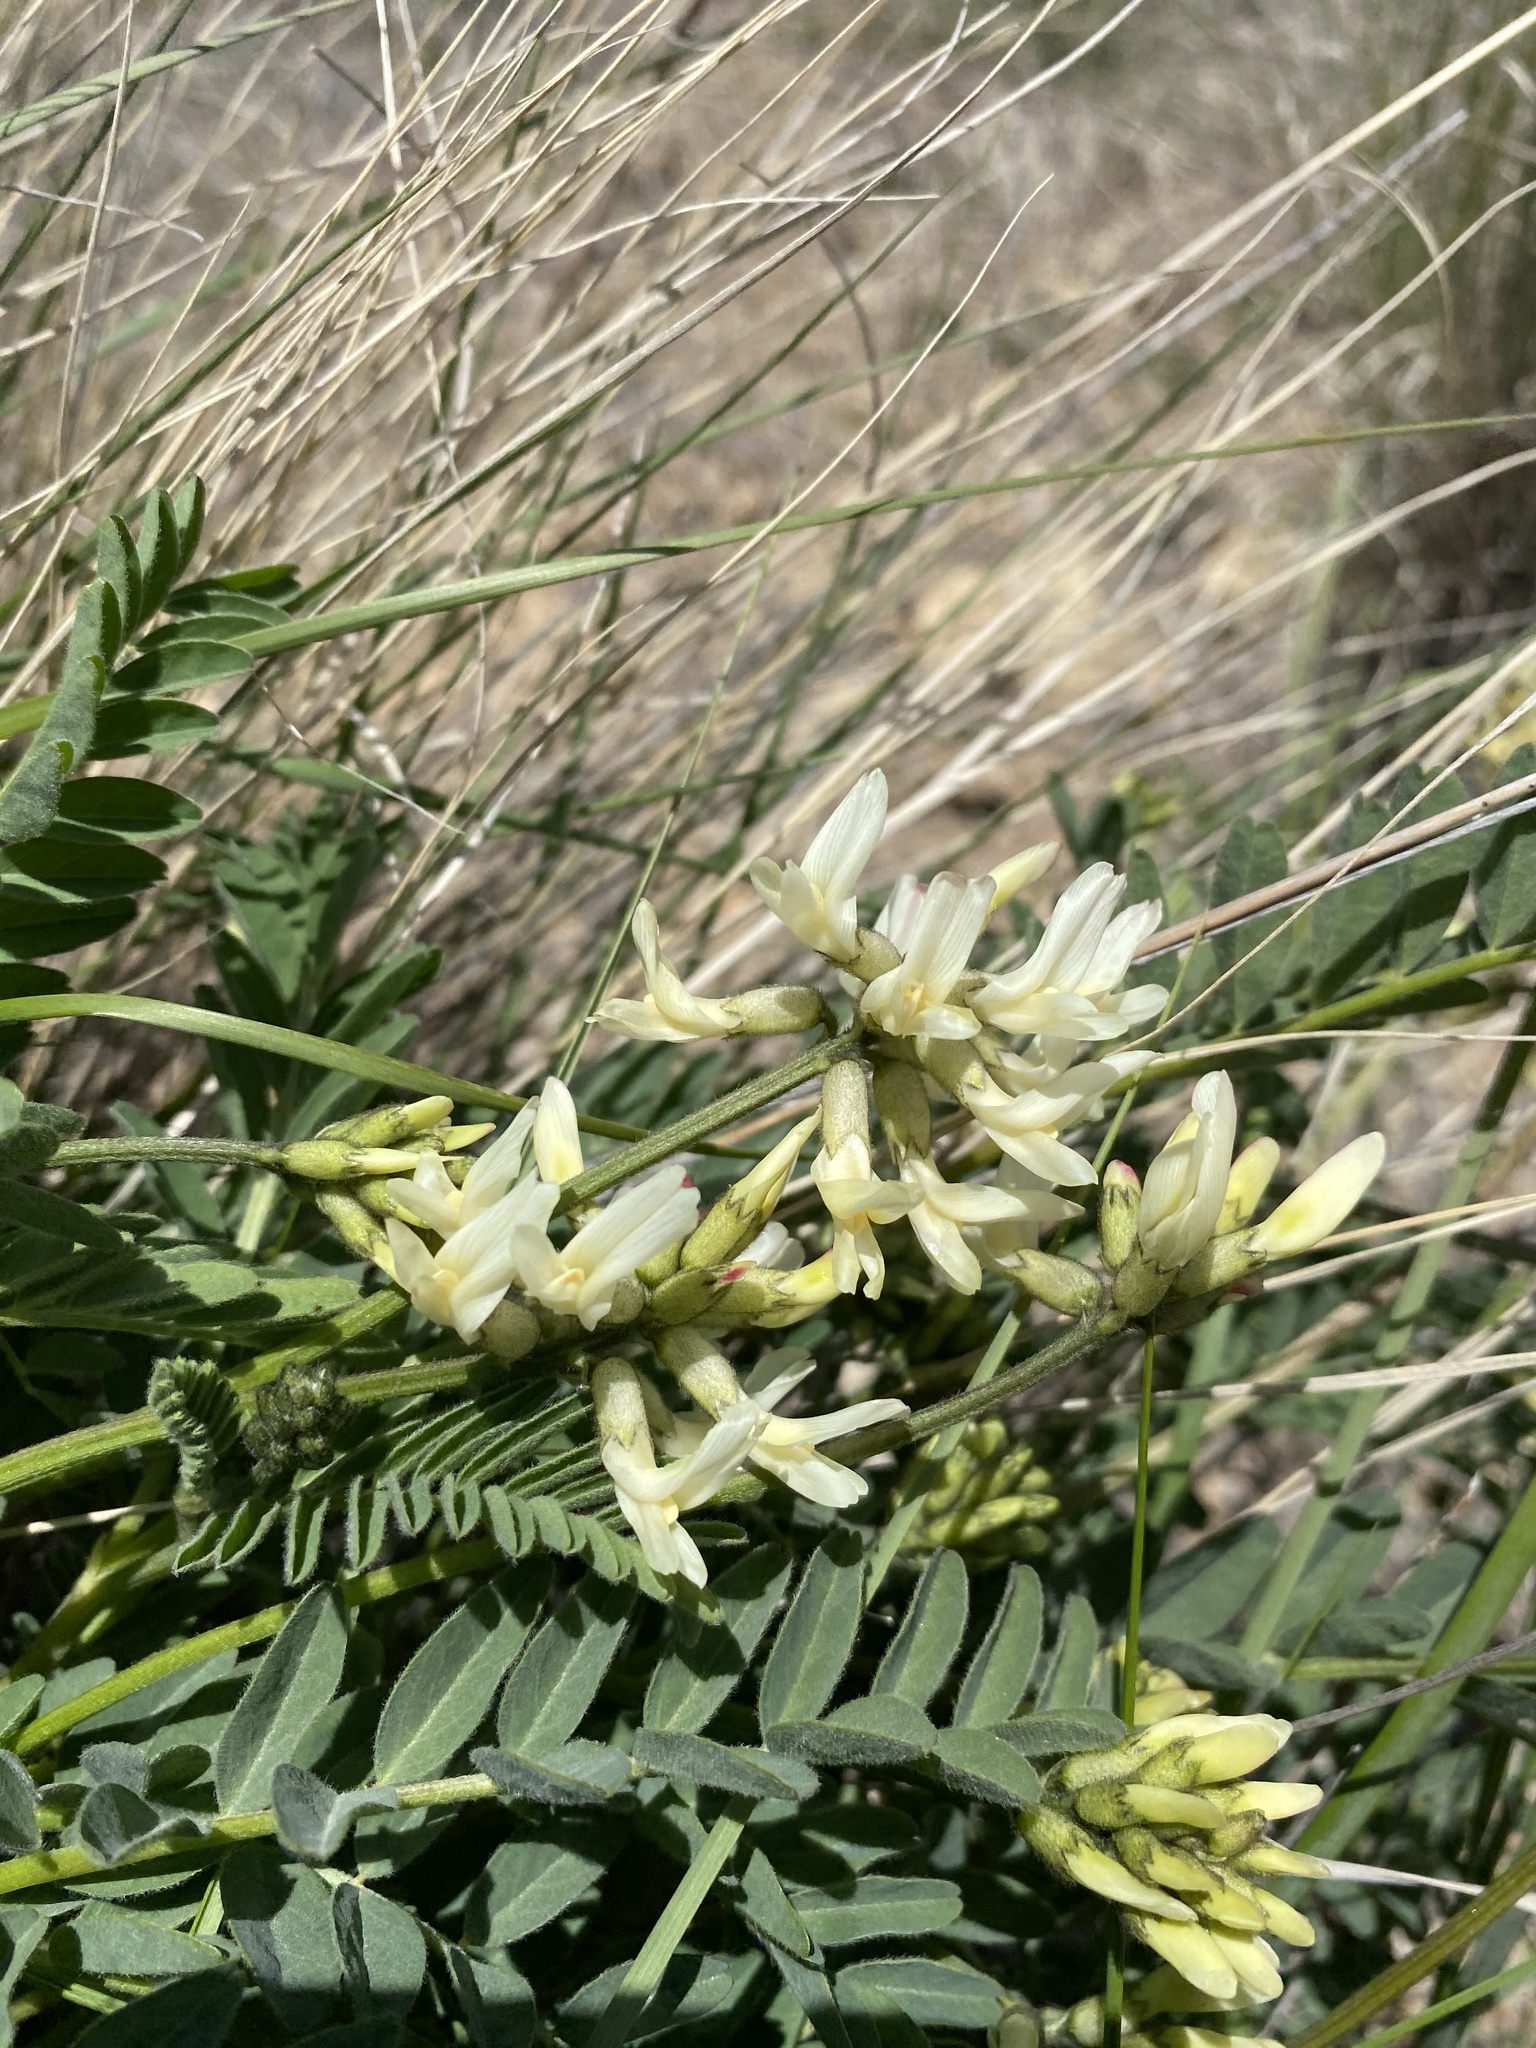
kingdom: Plantae
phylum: Tracheophyta
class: Magnoliopsida
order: Fabales
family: Fabaceae
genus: Astragalus
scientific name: Astragalus adanus
